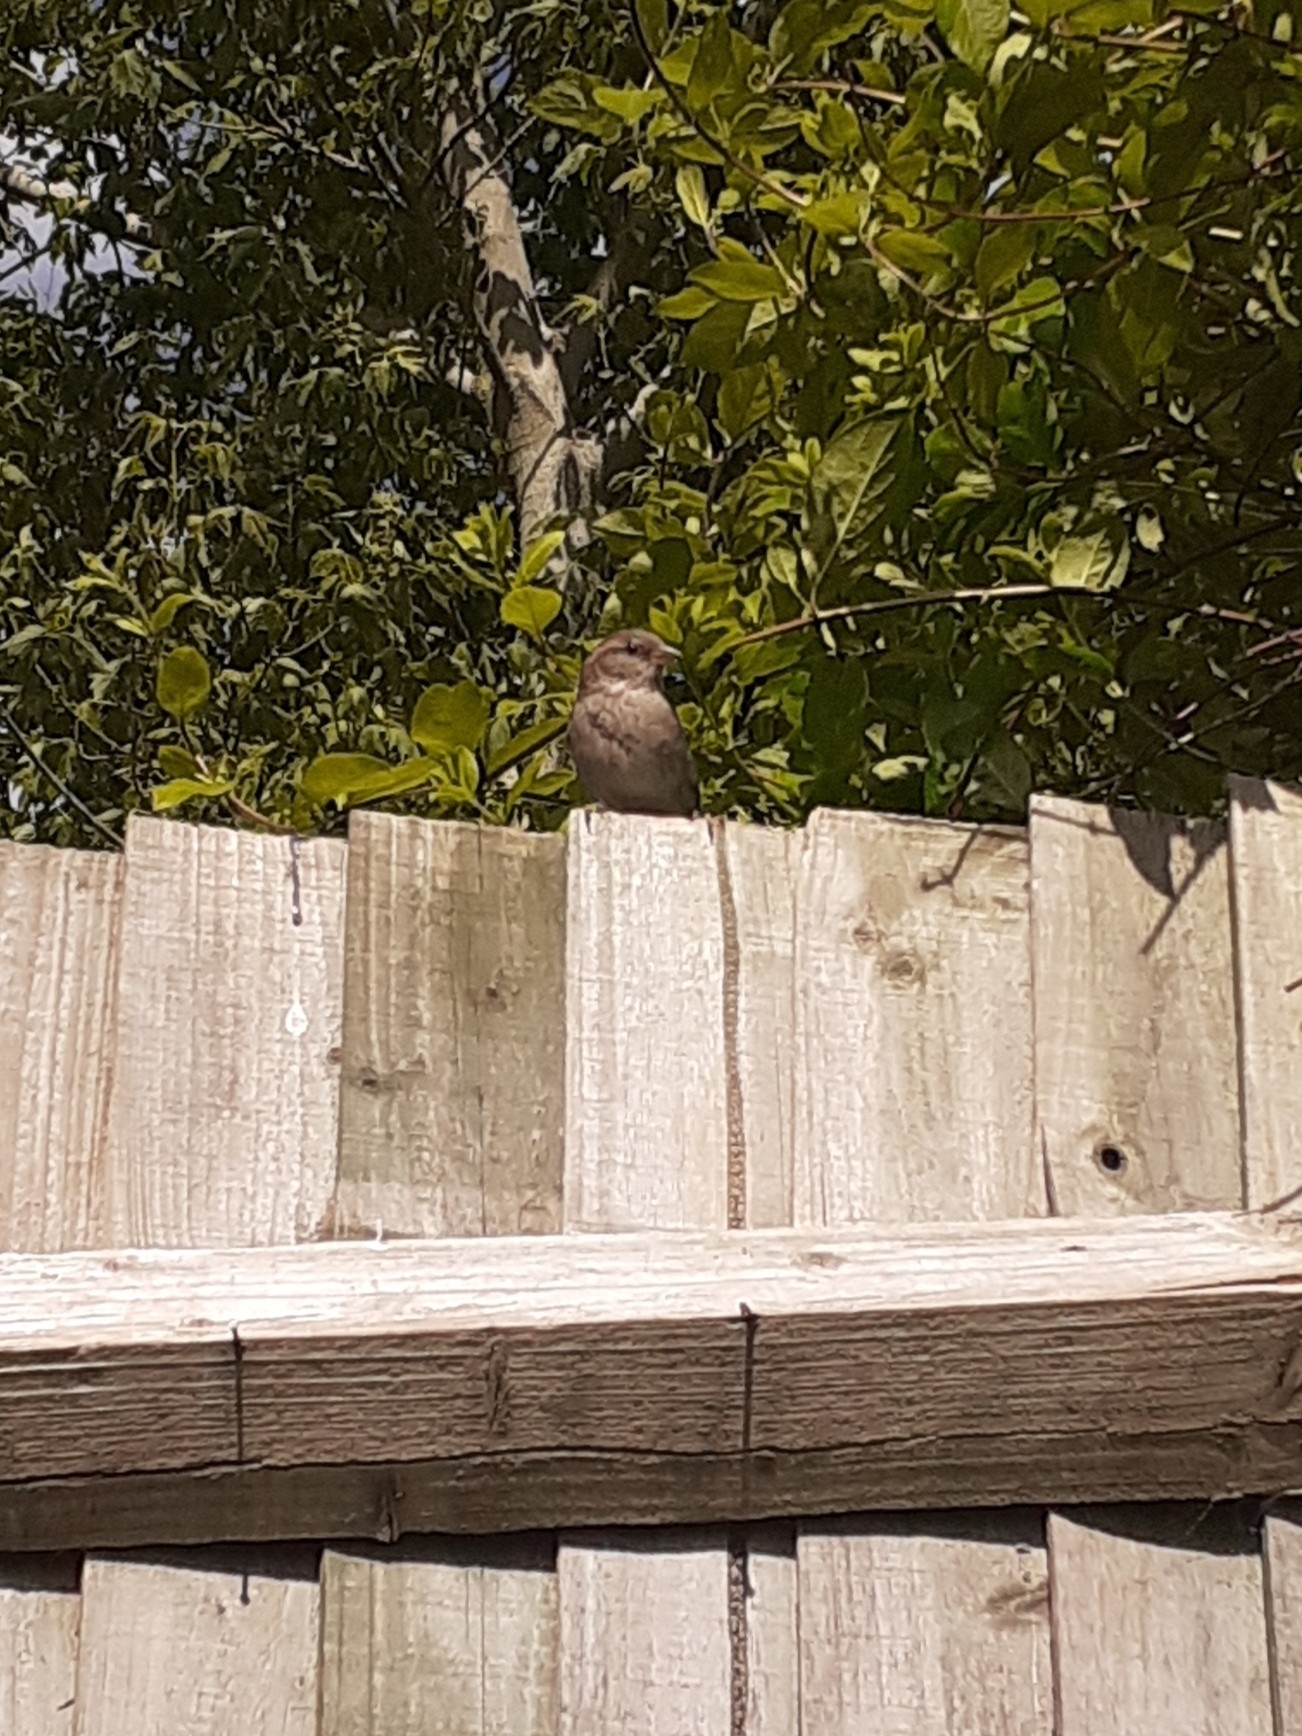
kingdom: Animalia
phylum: Chordata
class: Aves
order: Passeriformes
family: Passeridae
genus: Passer
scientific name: Passer domesticus
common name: House sparrow
